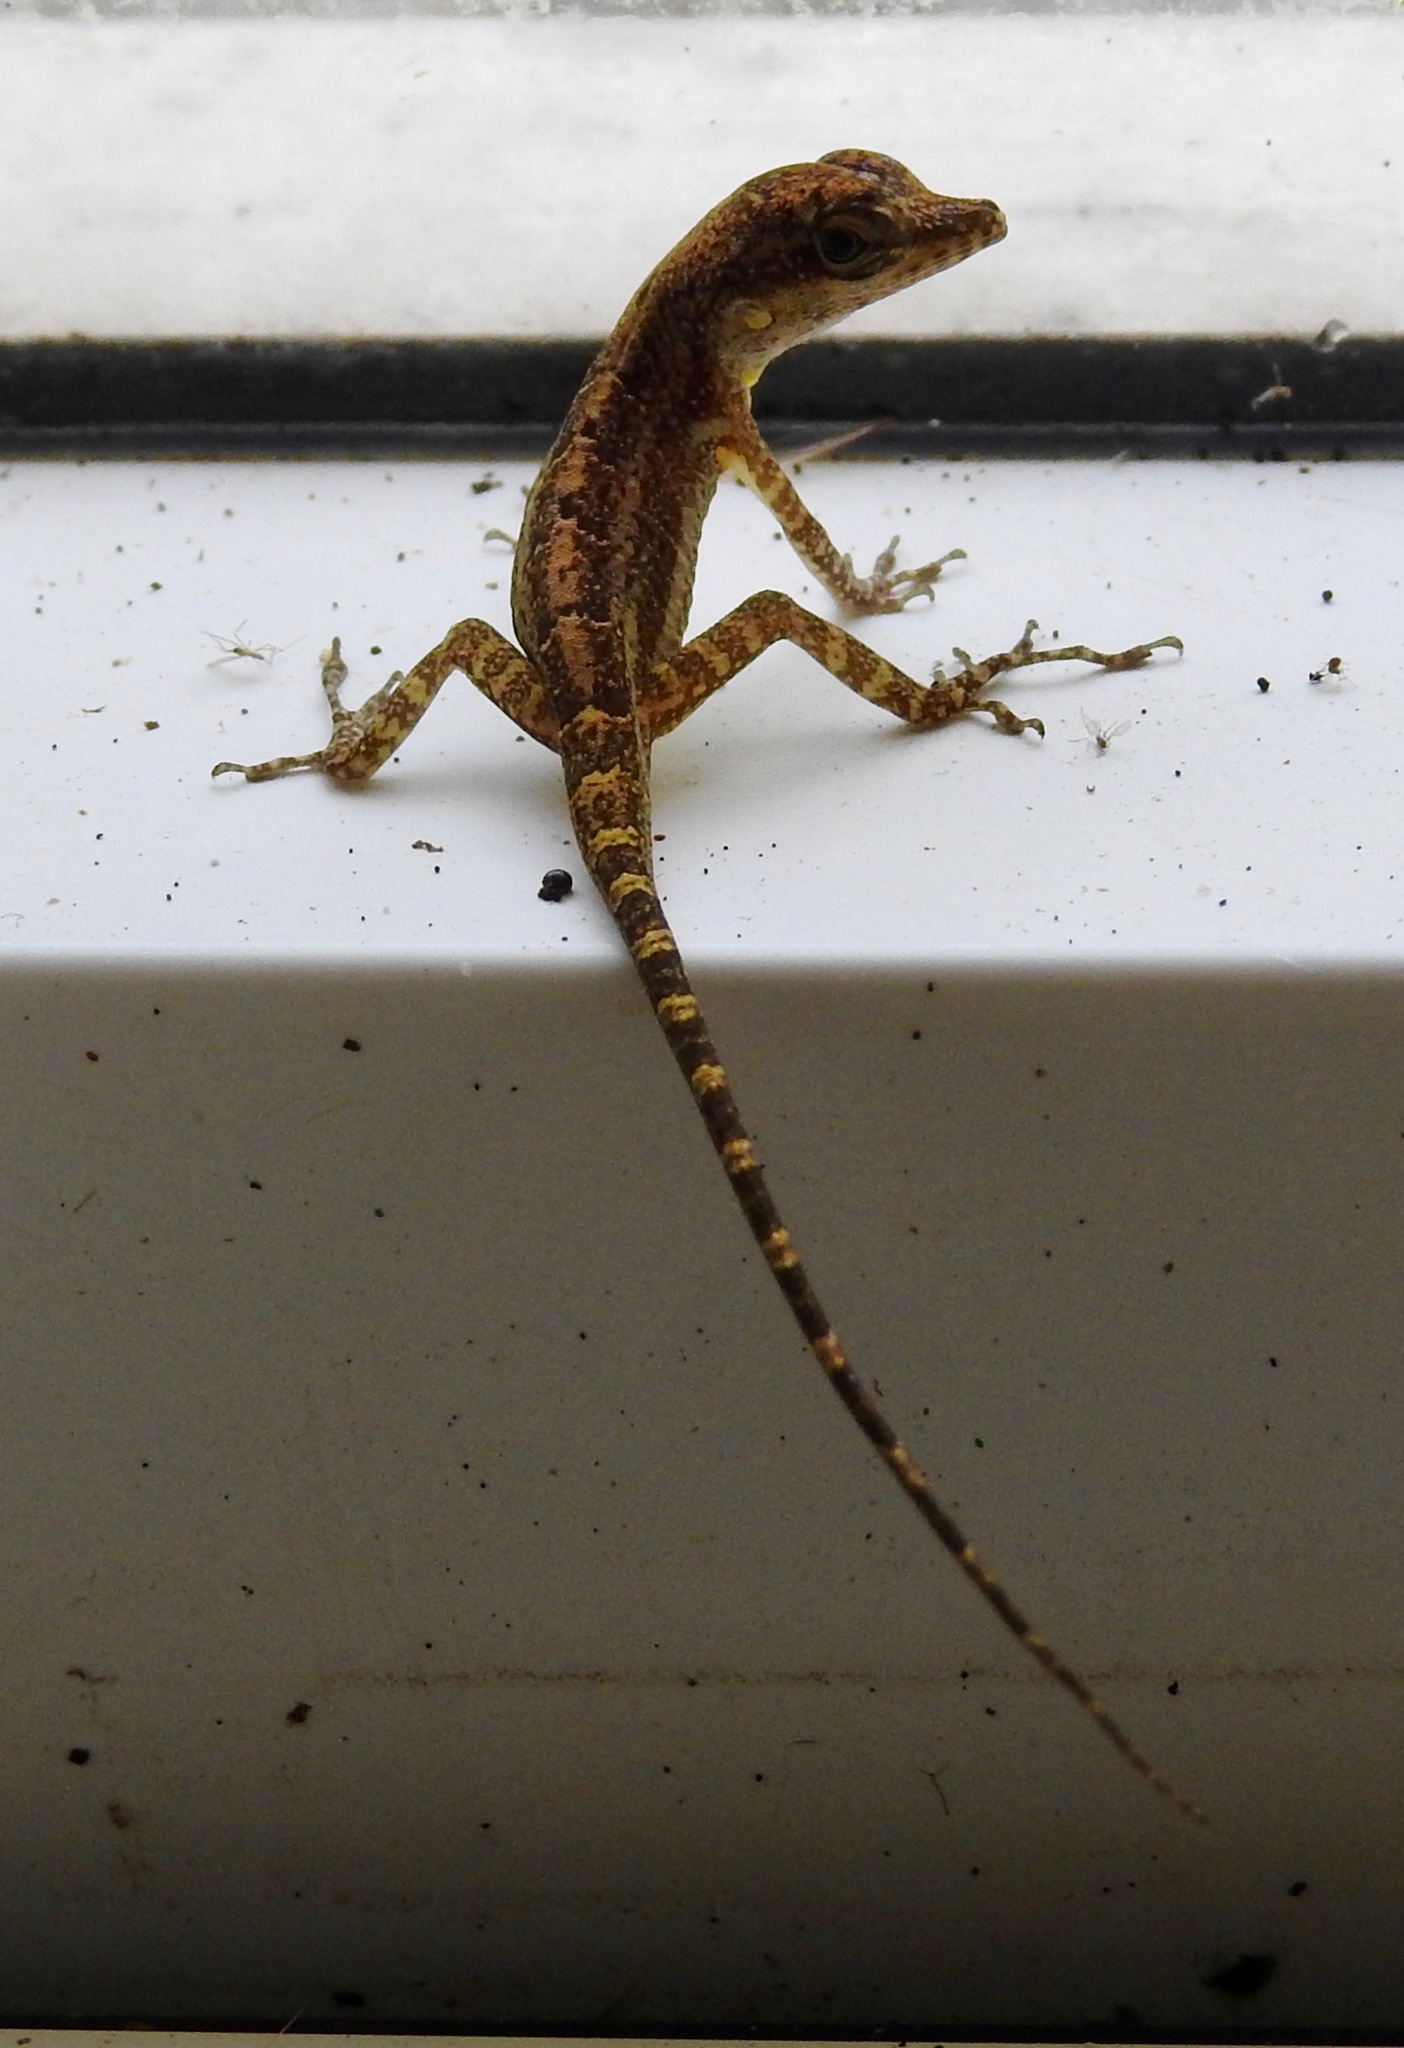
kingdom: Animalia
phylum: Chordata
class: Squamata
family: Dactyloidae
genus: Anolis
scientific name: Anolis sagrei
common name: Brown anole
